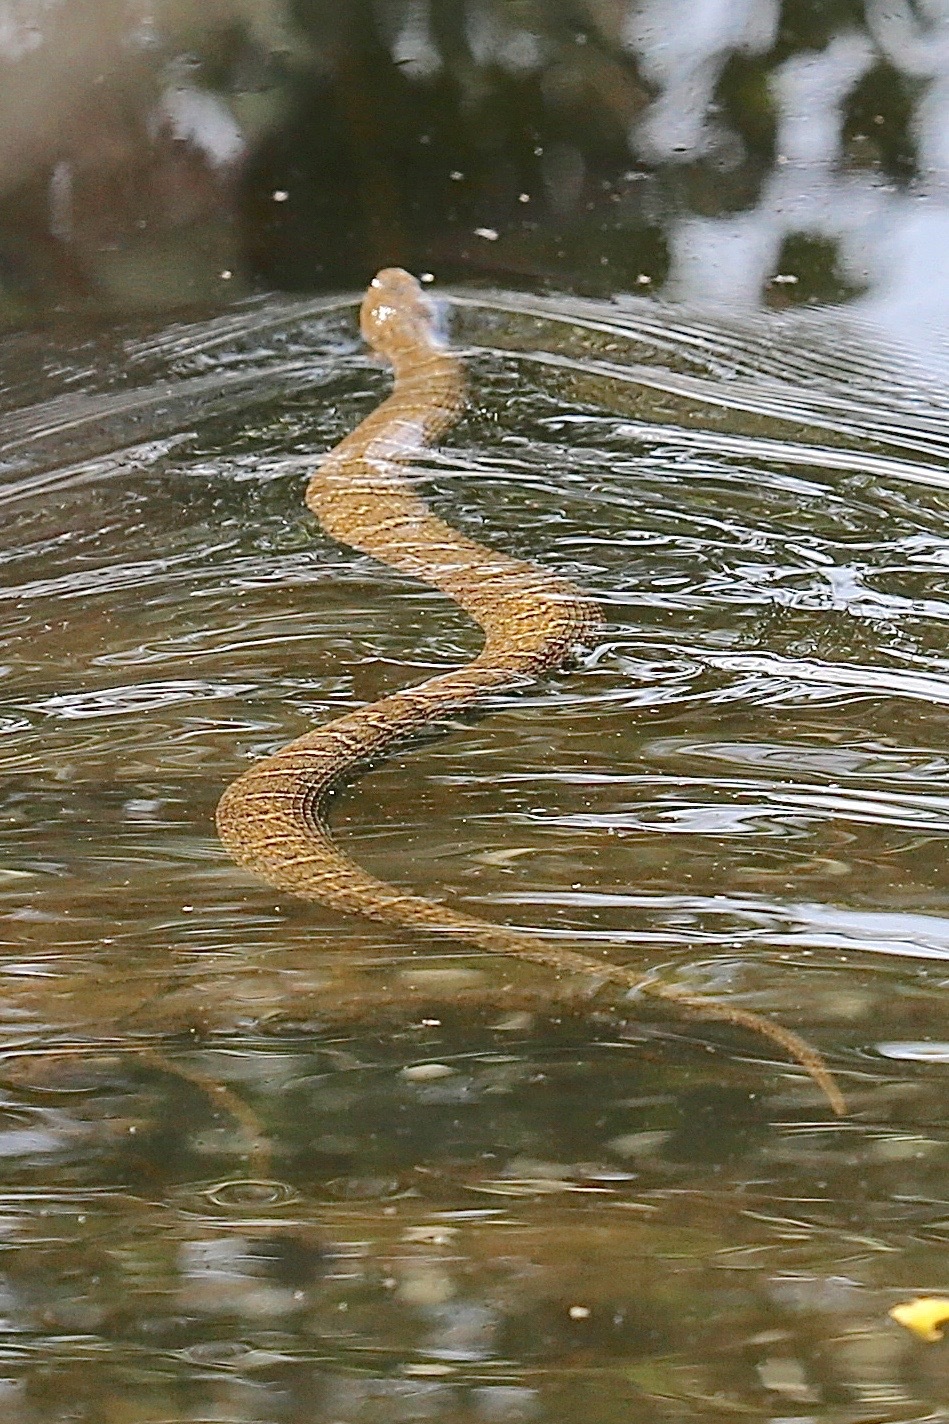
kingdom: Animalia
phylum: Chordata
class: Squamata
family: Colubridae
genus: Nerodia
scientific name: Nerodia sipedon
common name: Northern water snake
